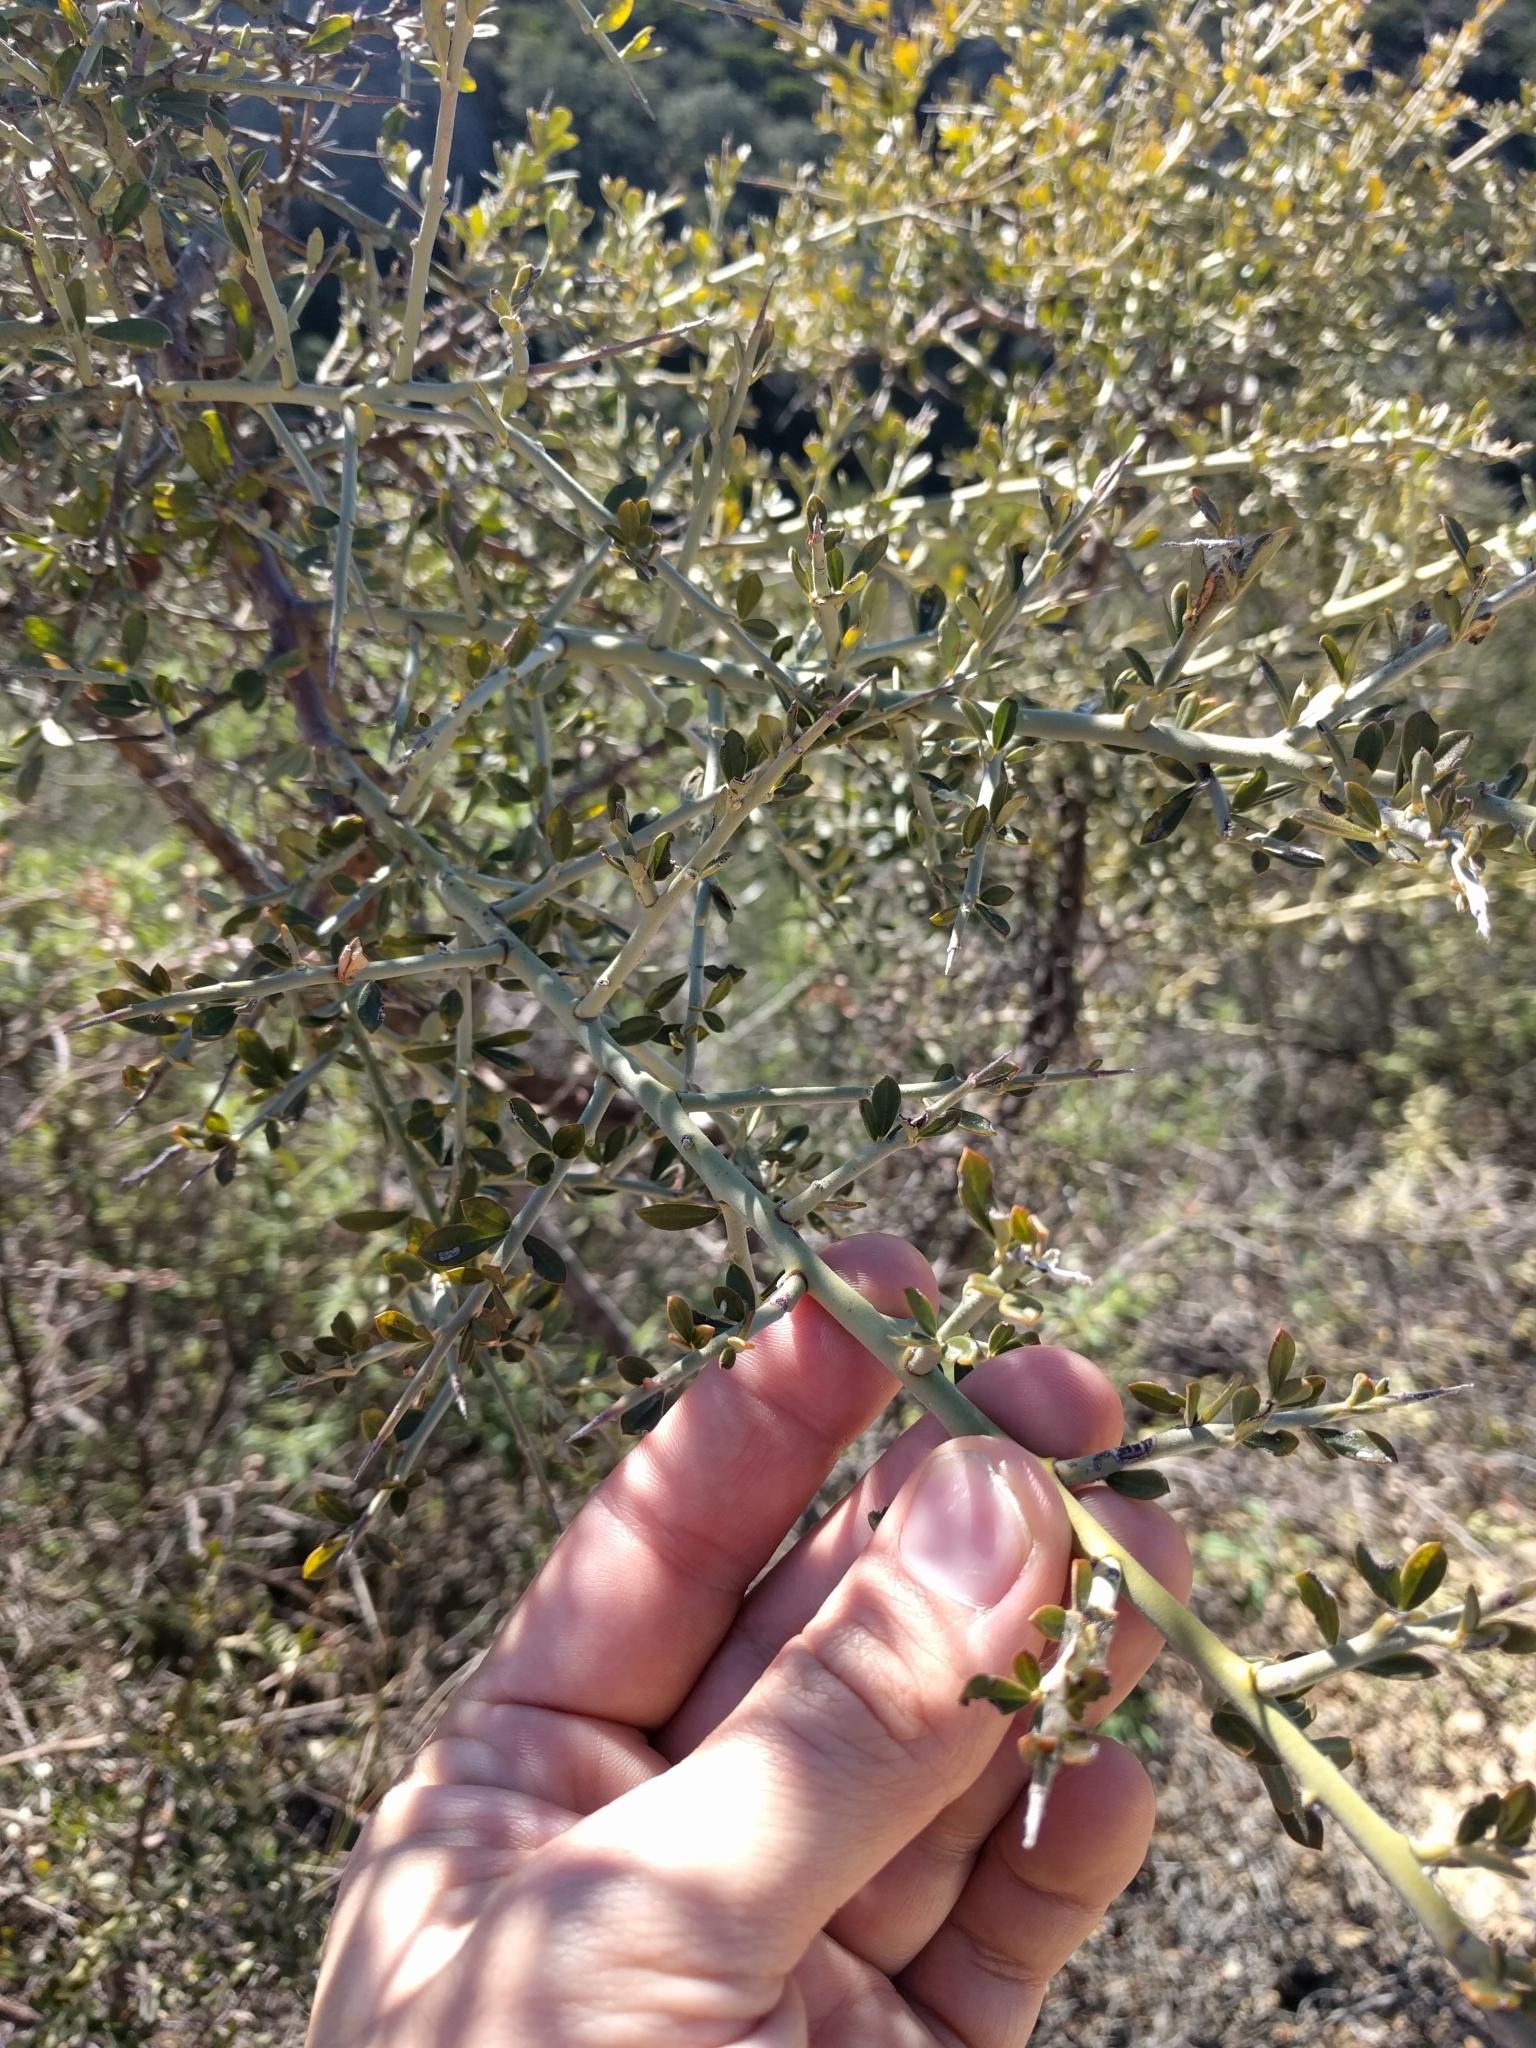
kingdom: Plantae
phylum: Tracheophyta
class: Magnoliopsida
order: Fabales
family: Fabaceae
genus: Pickeringia
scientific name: Pickeringia montana
